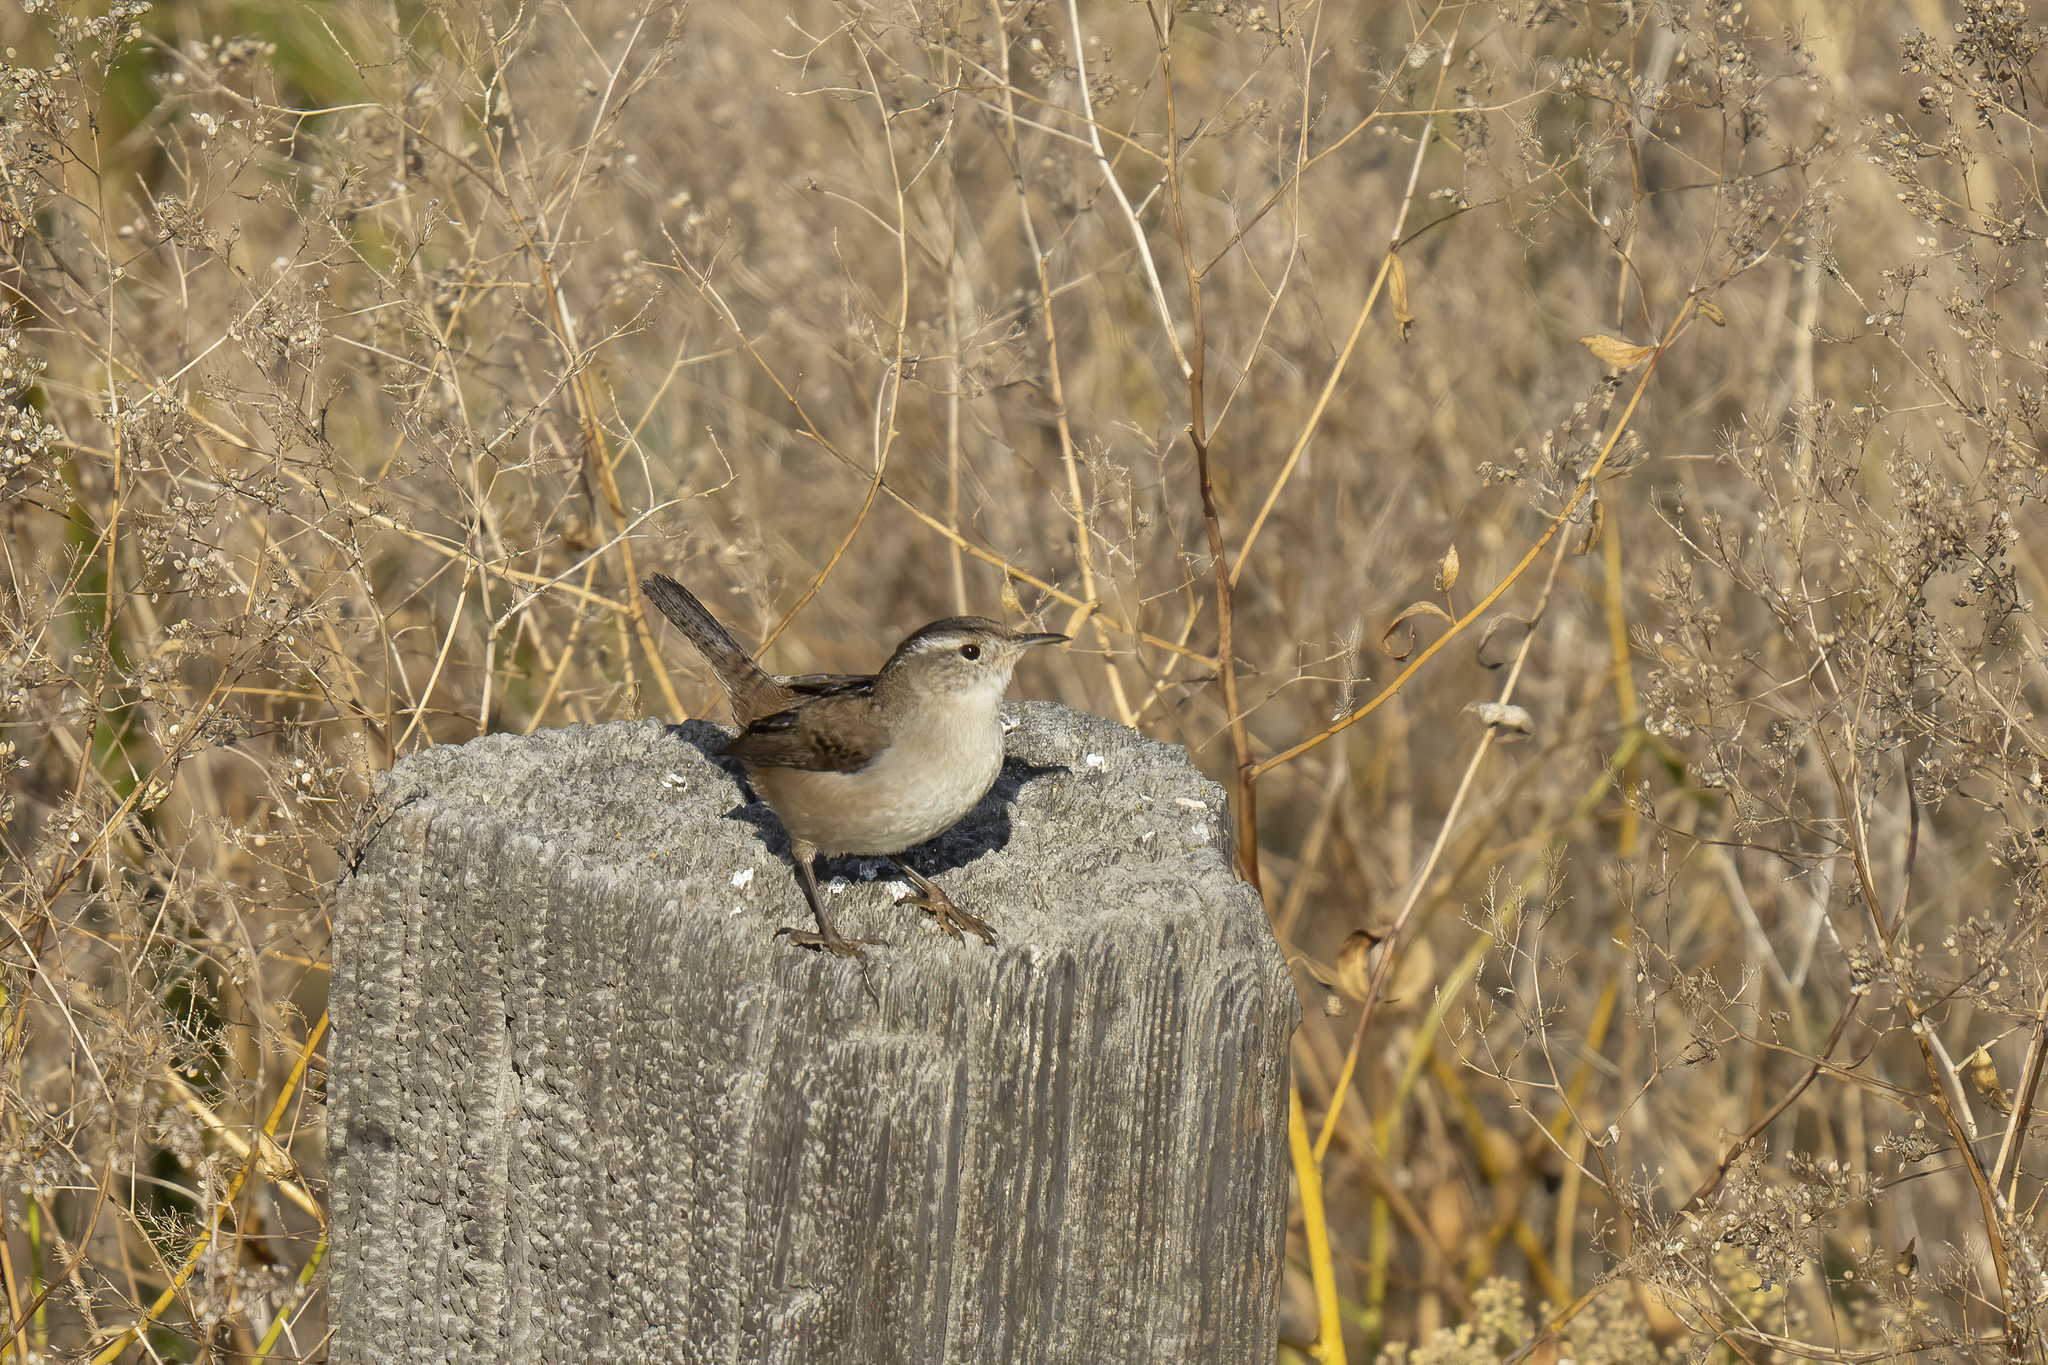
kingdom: Animalia
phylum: Chordata
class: Aves
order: Passeriformes
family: Troglodytidae
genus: Cistothorus
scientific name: Cistothorus palustris
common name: Marsh wren
